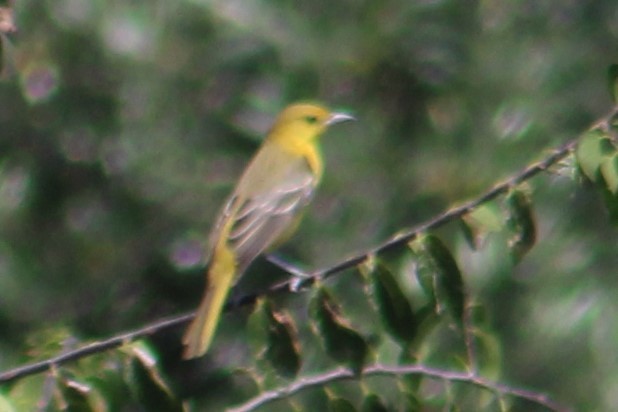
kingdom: Animalia
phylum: Chordata
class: Aves
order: Passeriformes
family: Icteridae
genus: Icterus
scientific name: Icterus spurius
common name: Orchard oriole
